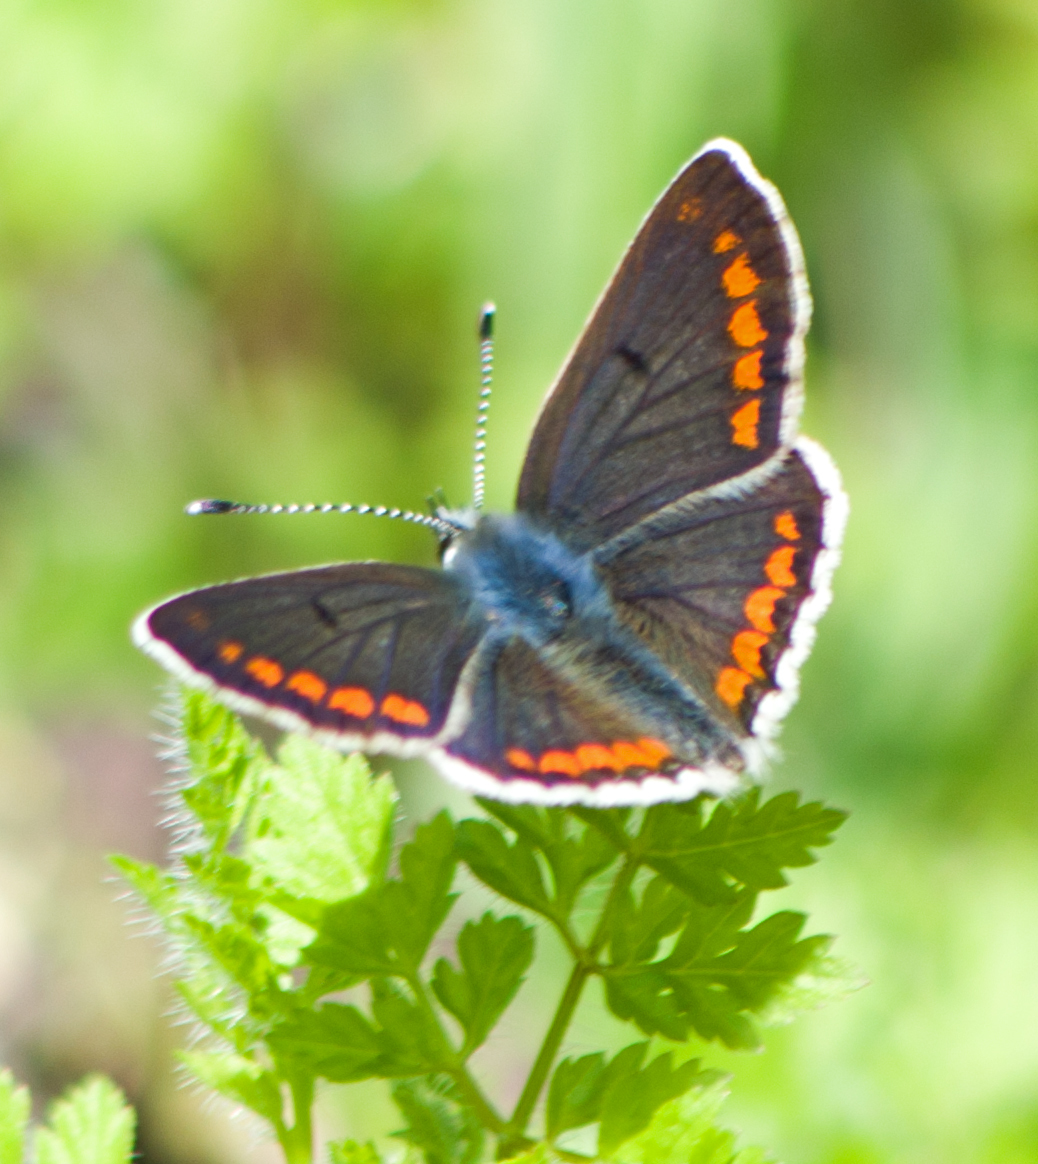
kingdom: Animalia
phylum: Arthropoda
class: Insecta
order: Lepidoptera
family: Lycaenidae
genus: Aricia
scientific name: Aricia agestis
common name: Brown argus
